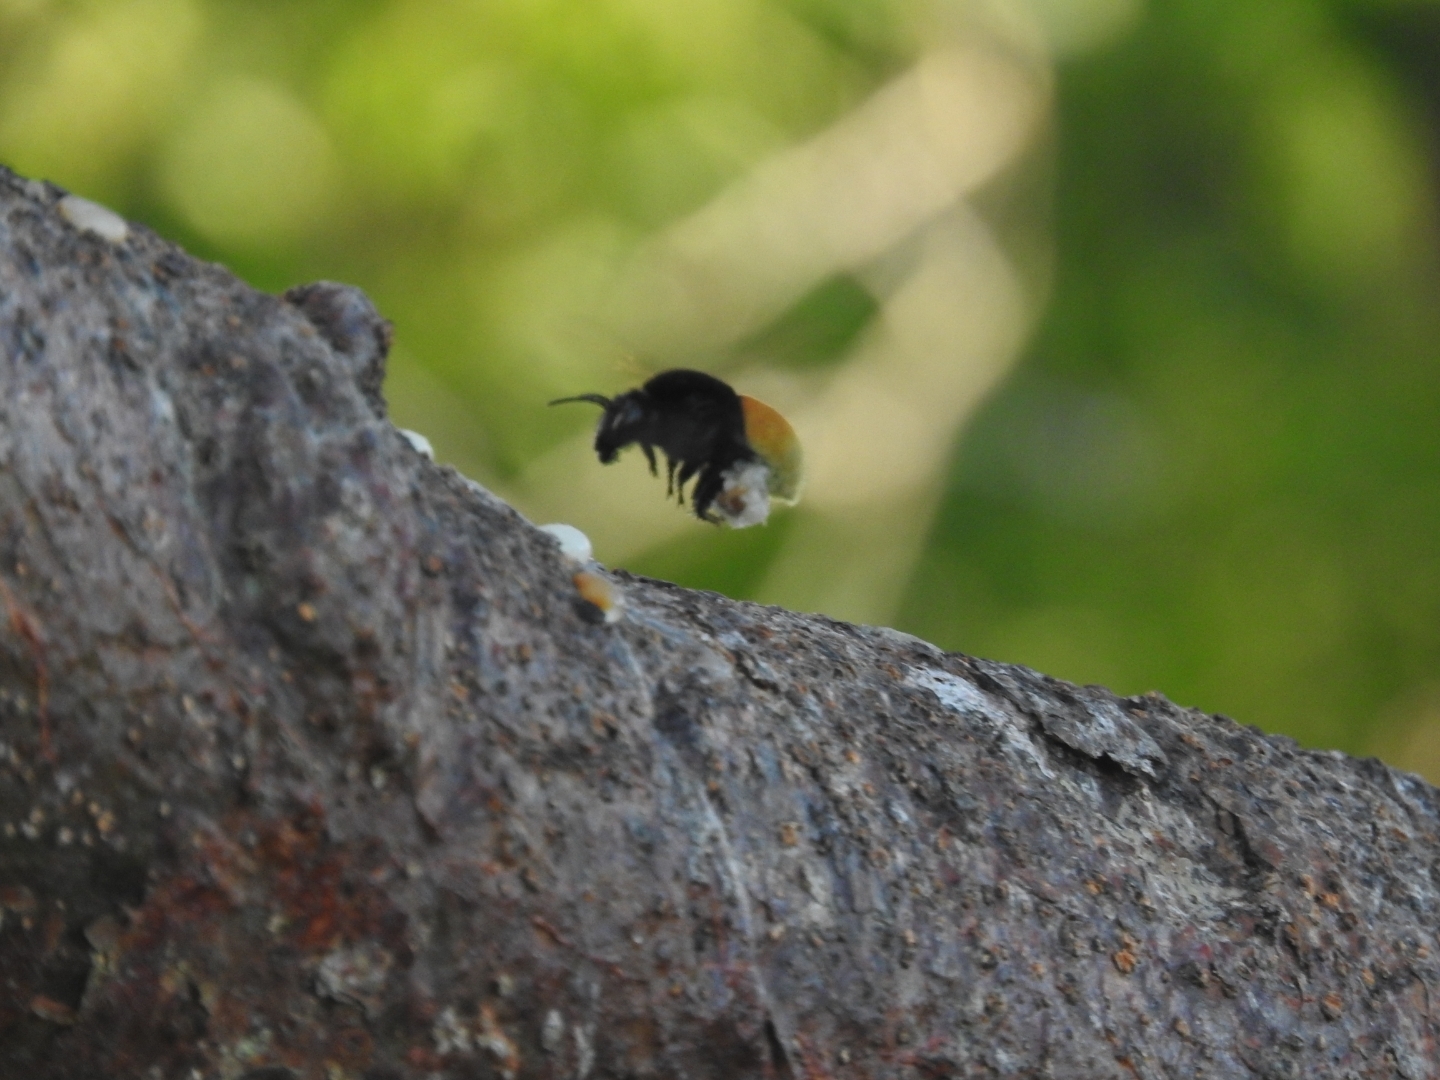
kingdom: Animalia
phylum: Arthropoda
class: Insecta
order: Hymenoptera
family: Apidae
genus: Eulaema
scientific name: Eulaema polychroma
